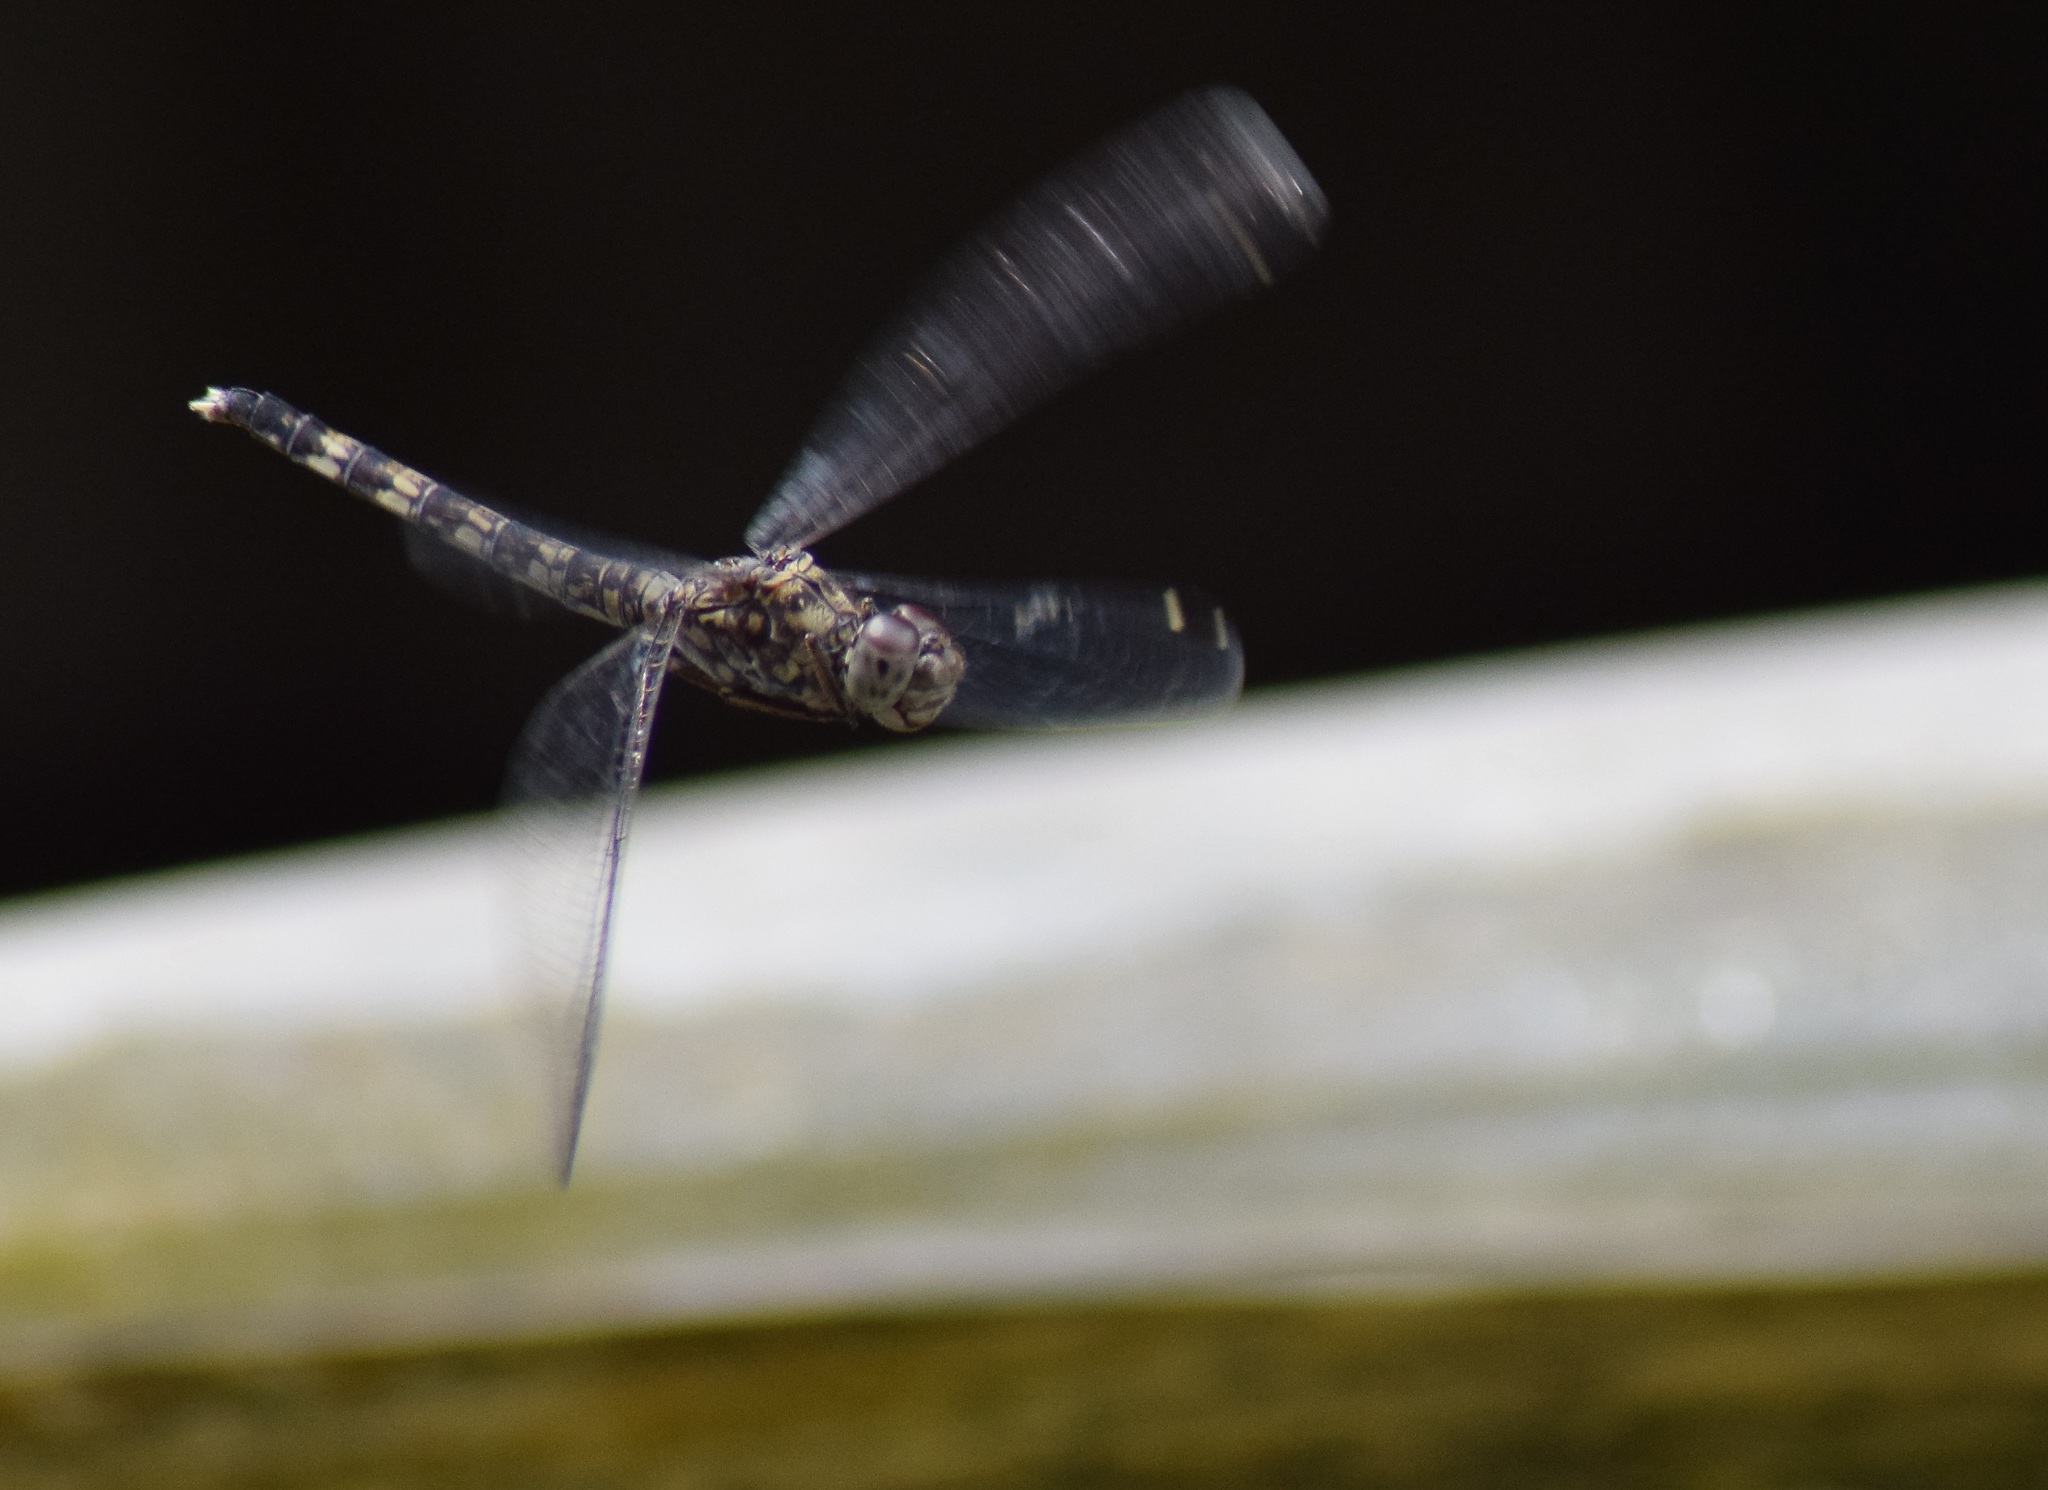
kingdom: Animalia
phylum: Arthropoda
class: Insecta
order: Odonata
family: Libellulidae
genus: Bradinopyga
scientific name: Bradinopyga geminata
